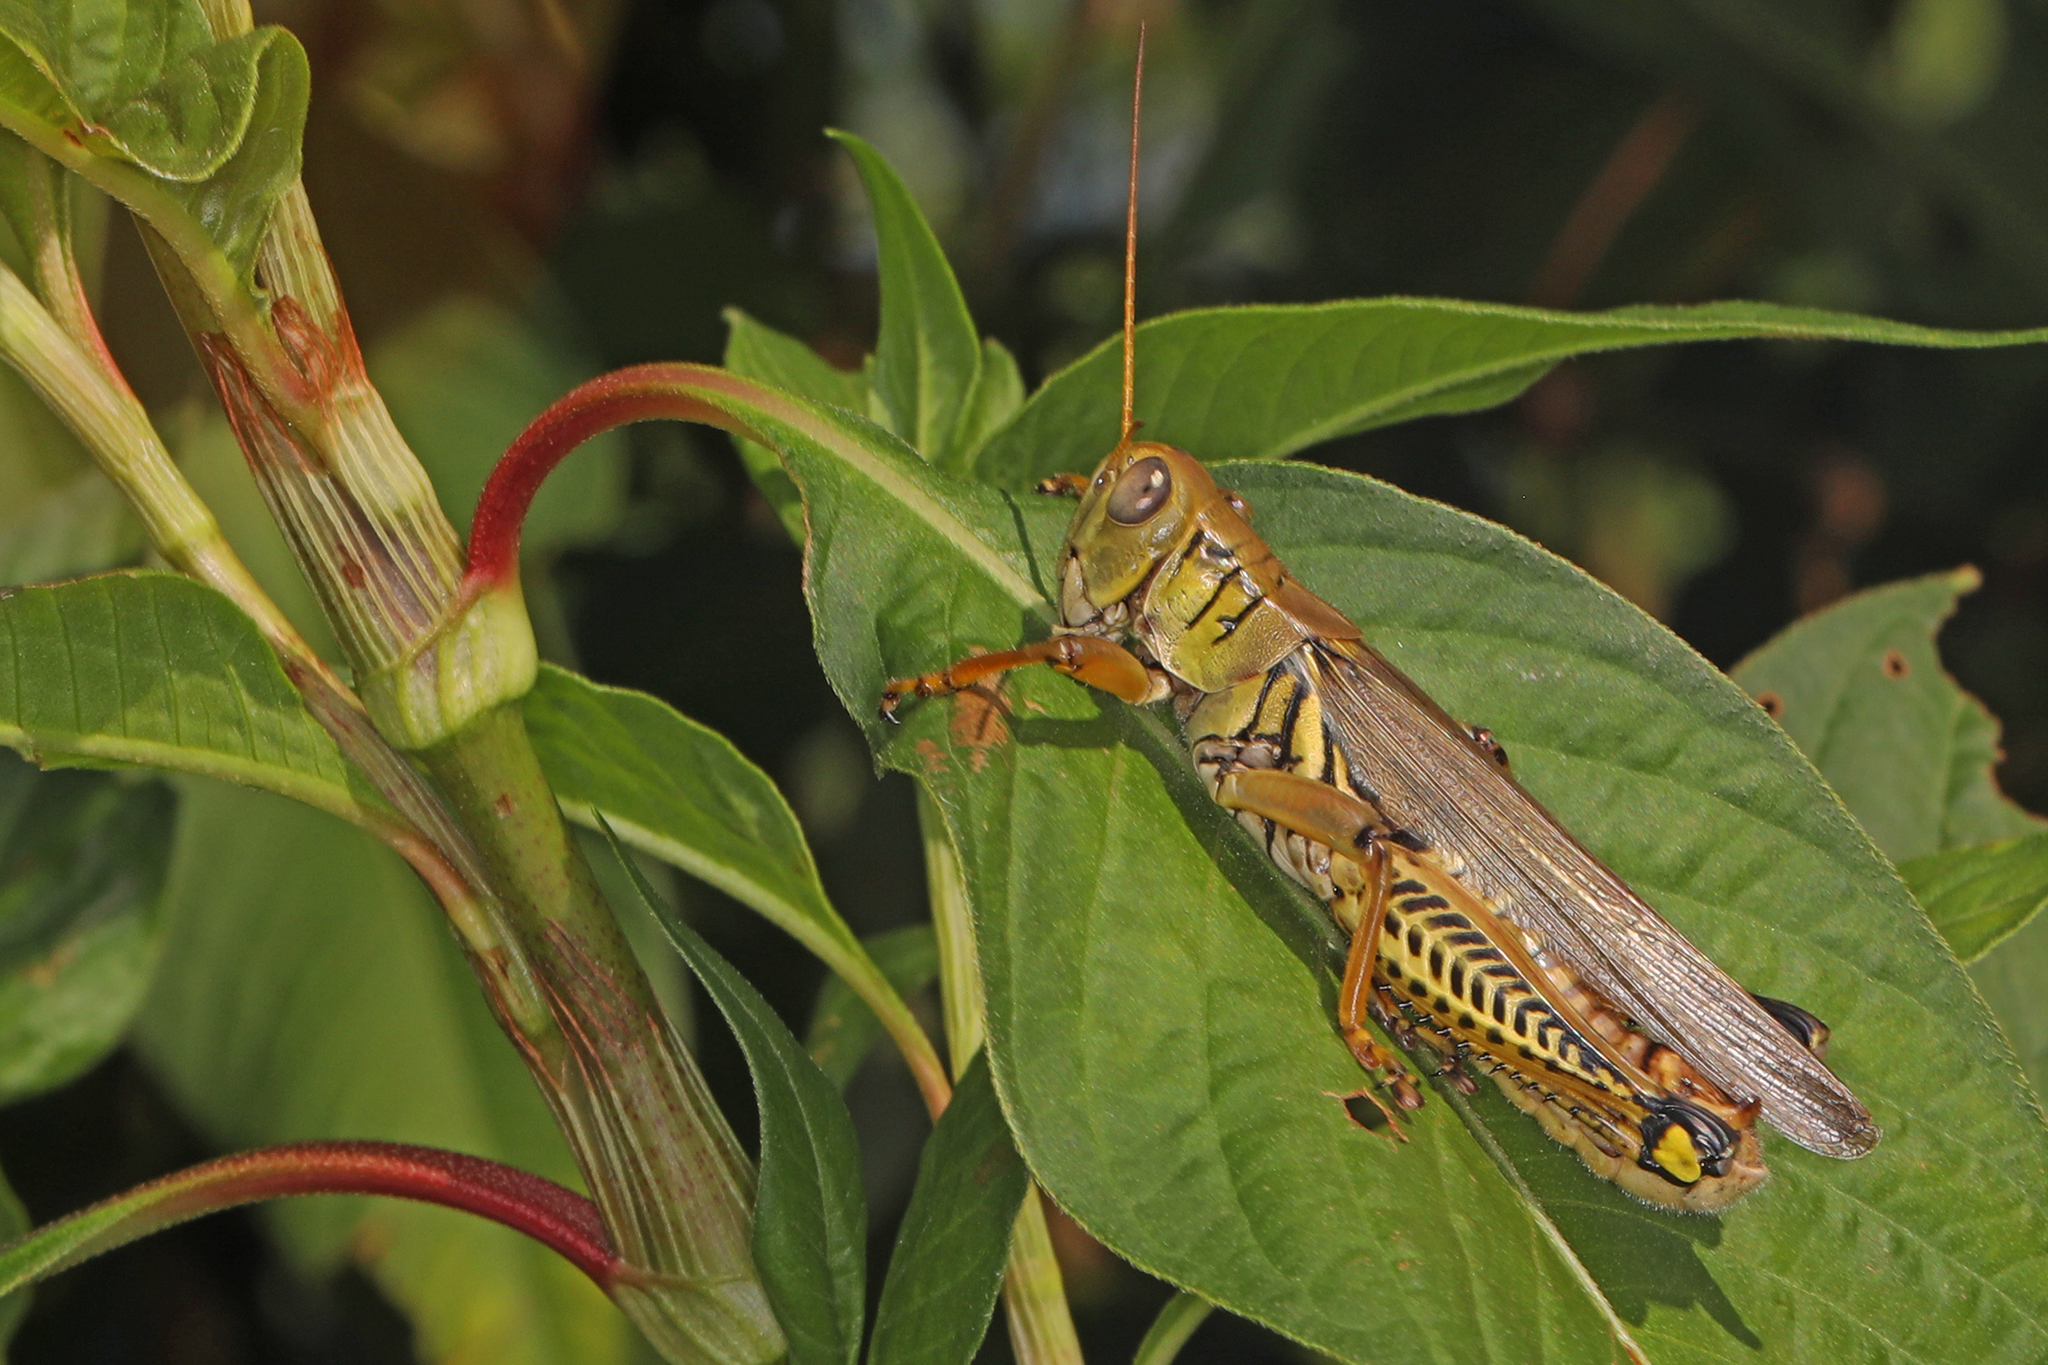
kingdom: Animalia
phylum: Arthropoda
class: Insecta
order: Orthoptera
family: Acrididae
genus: Melanoplus
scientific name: Melanoplus differentialis
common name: Differential grasshopper
